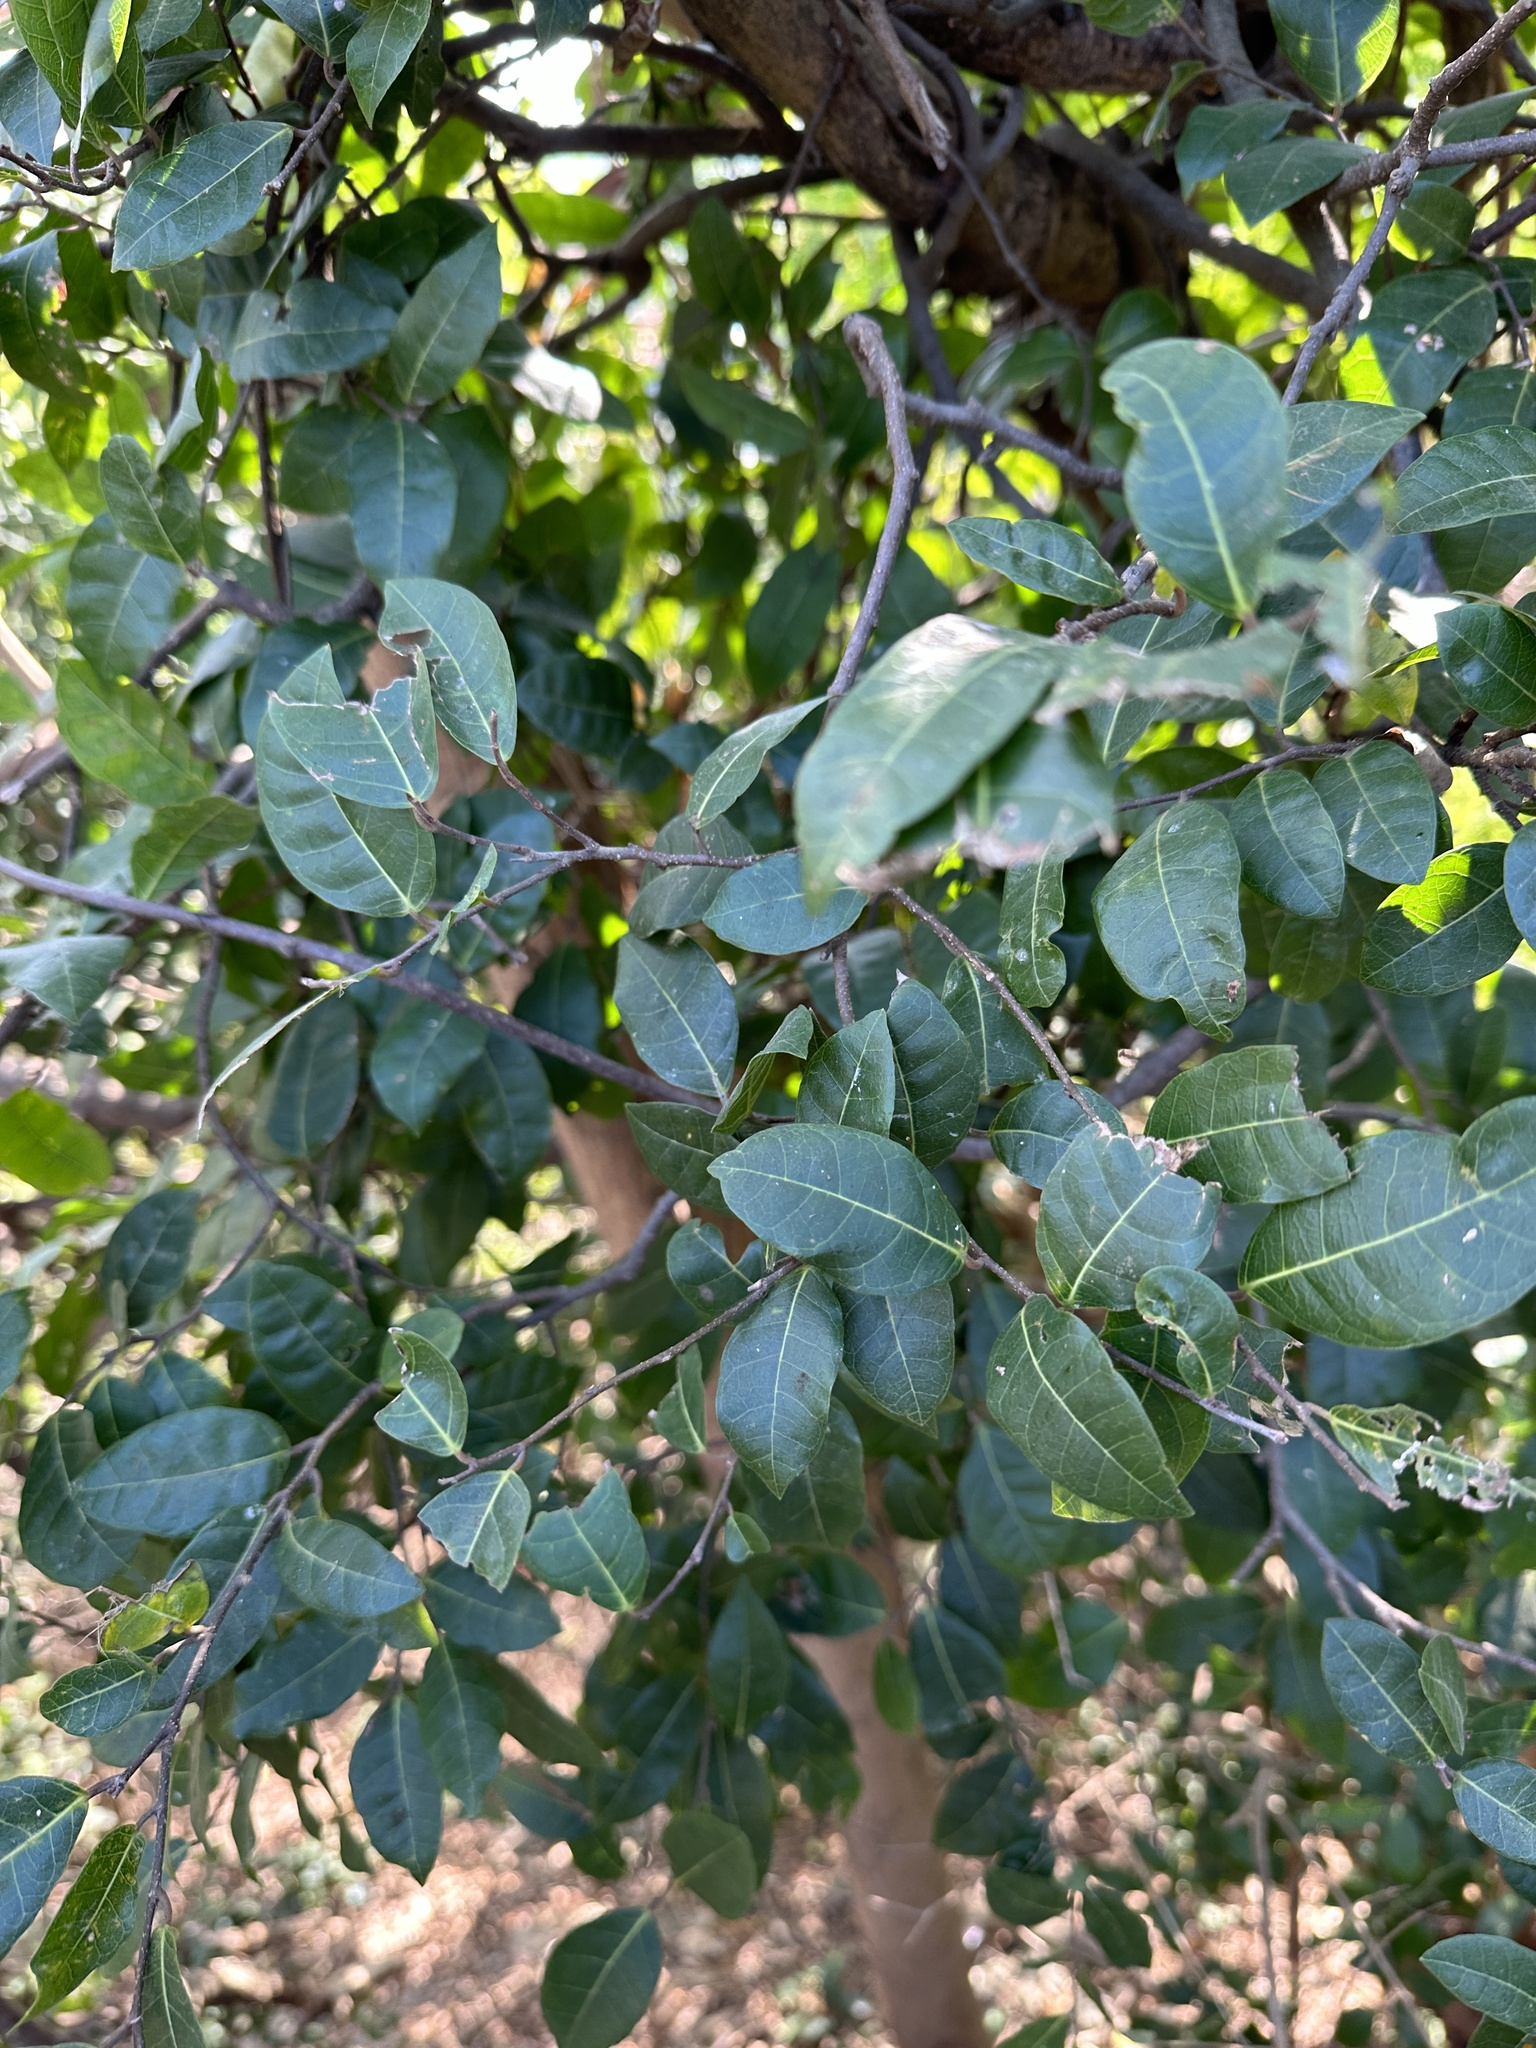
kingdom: Plantae
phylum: Tracheophyta
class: Magnoliopsida
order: Rosales
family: Moraceae
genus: Malaisia
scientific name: Malaisia scandens
